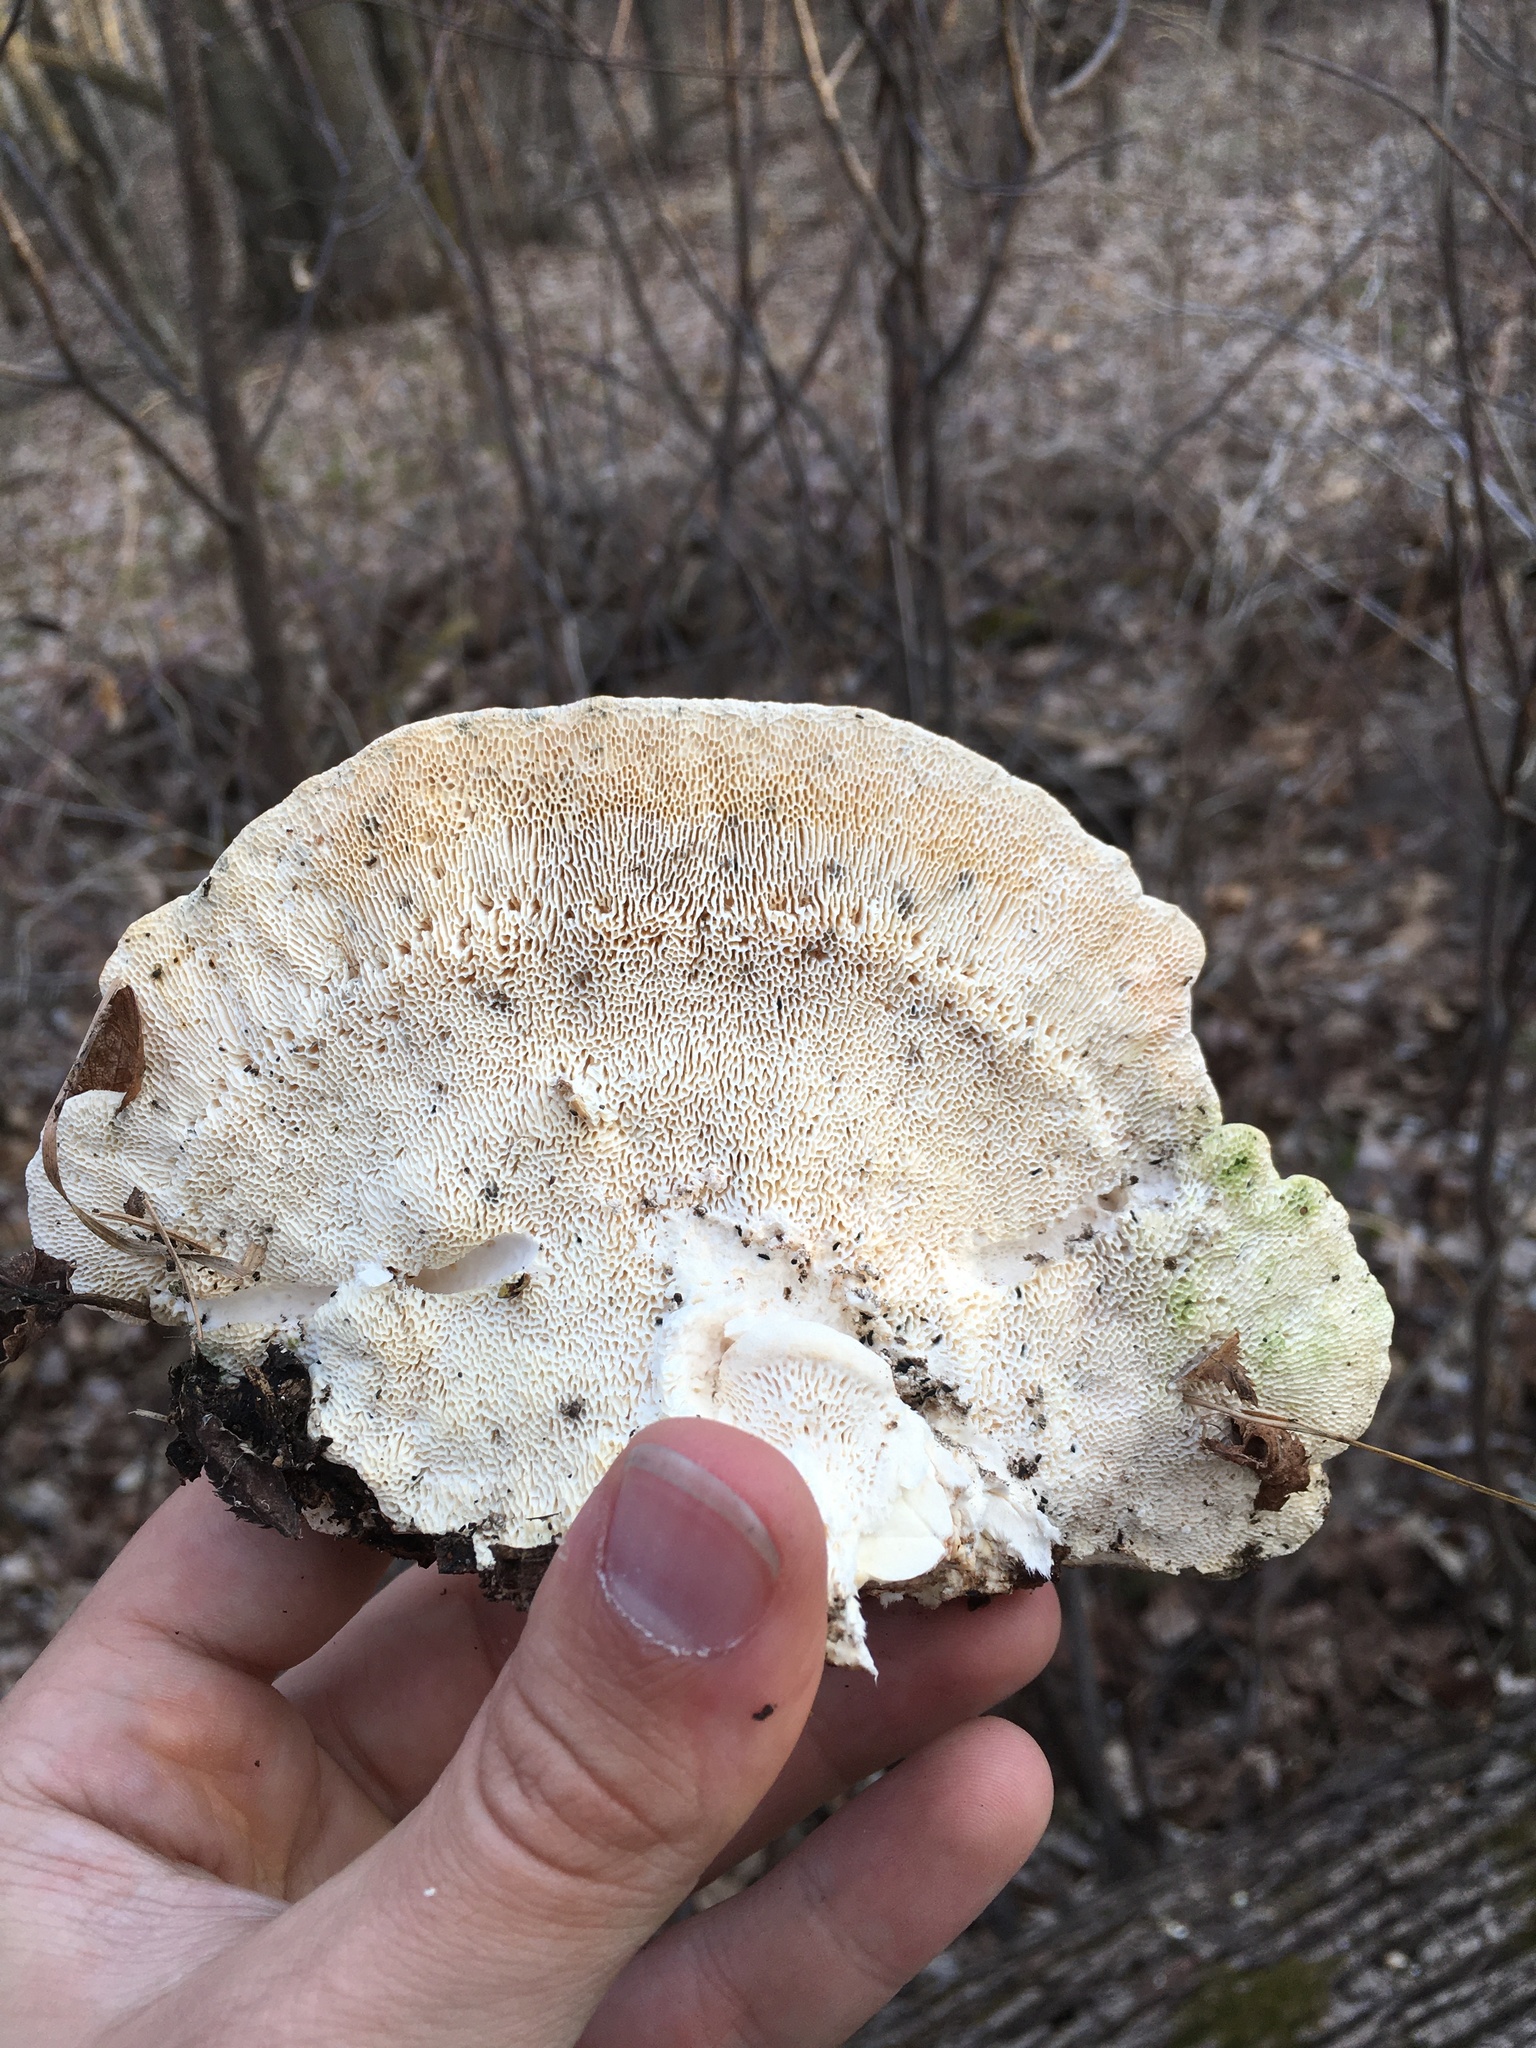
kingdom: Fungi
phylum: Basidiomycota
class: Agaricomycetes
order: Polyporales
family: Polyporaceae
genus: Trametes
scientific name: Trametes gibbosa
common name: Lumpy bracket
